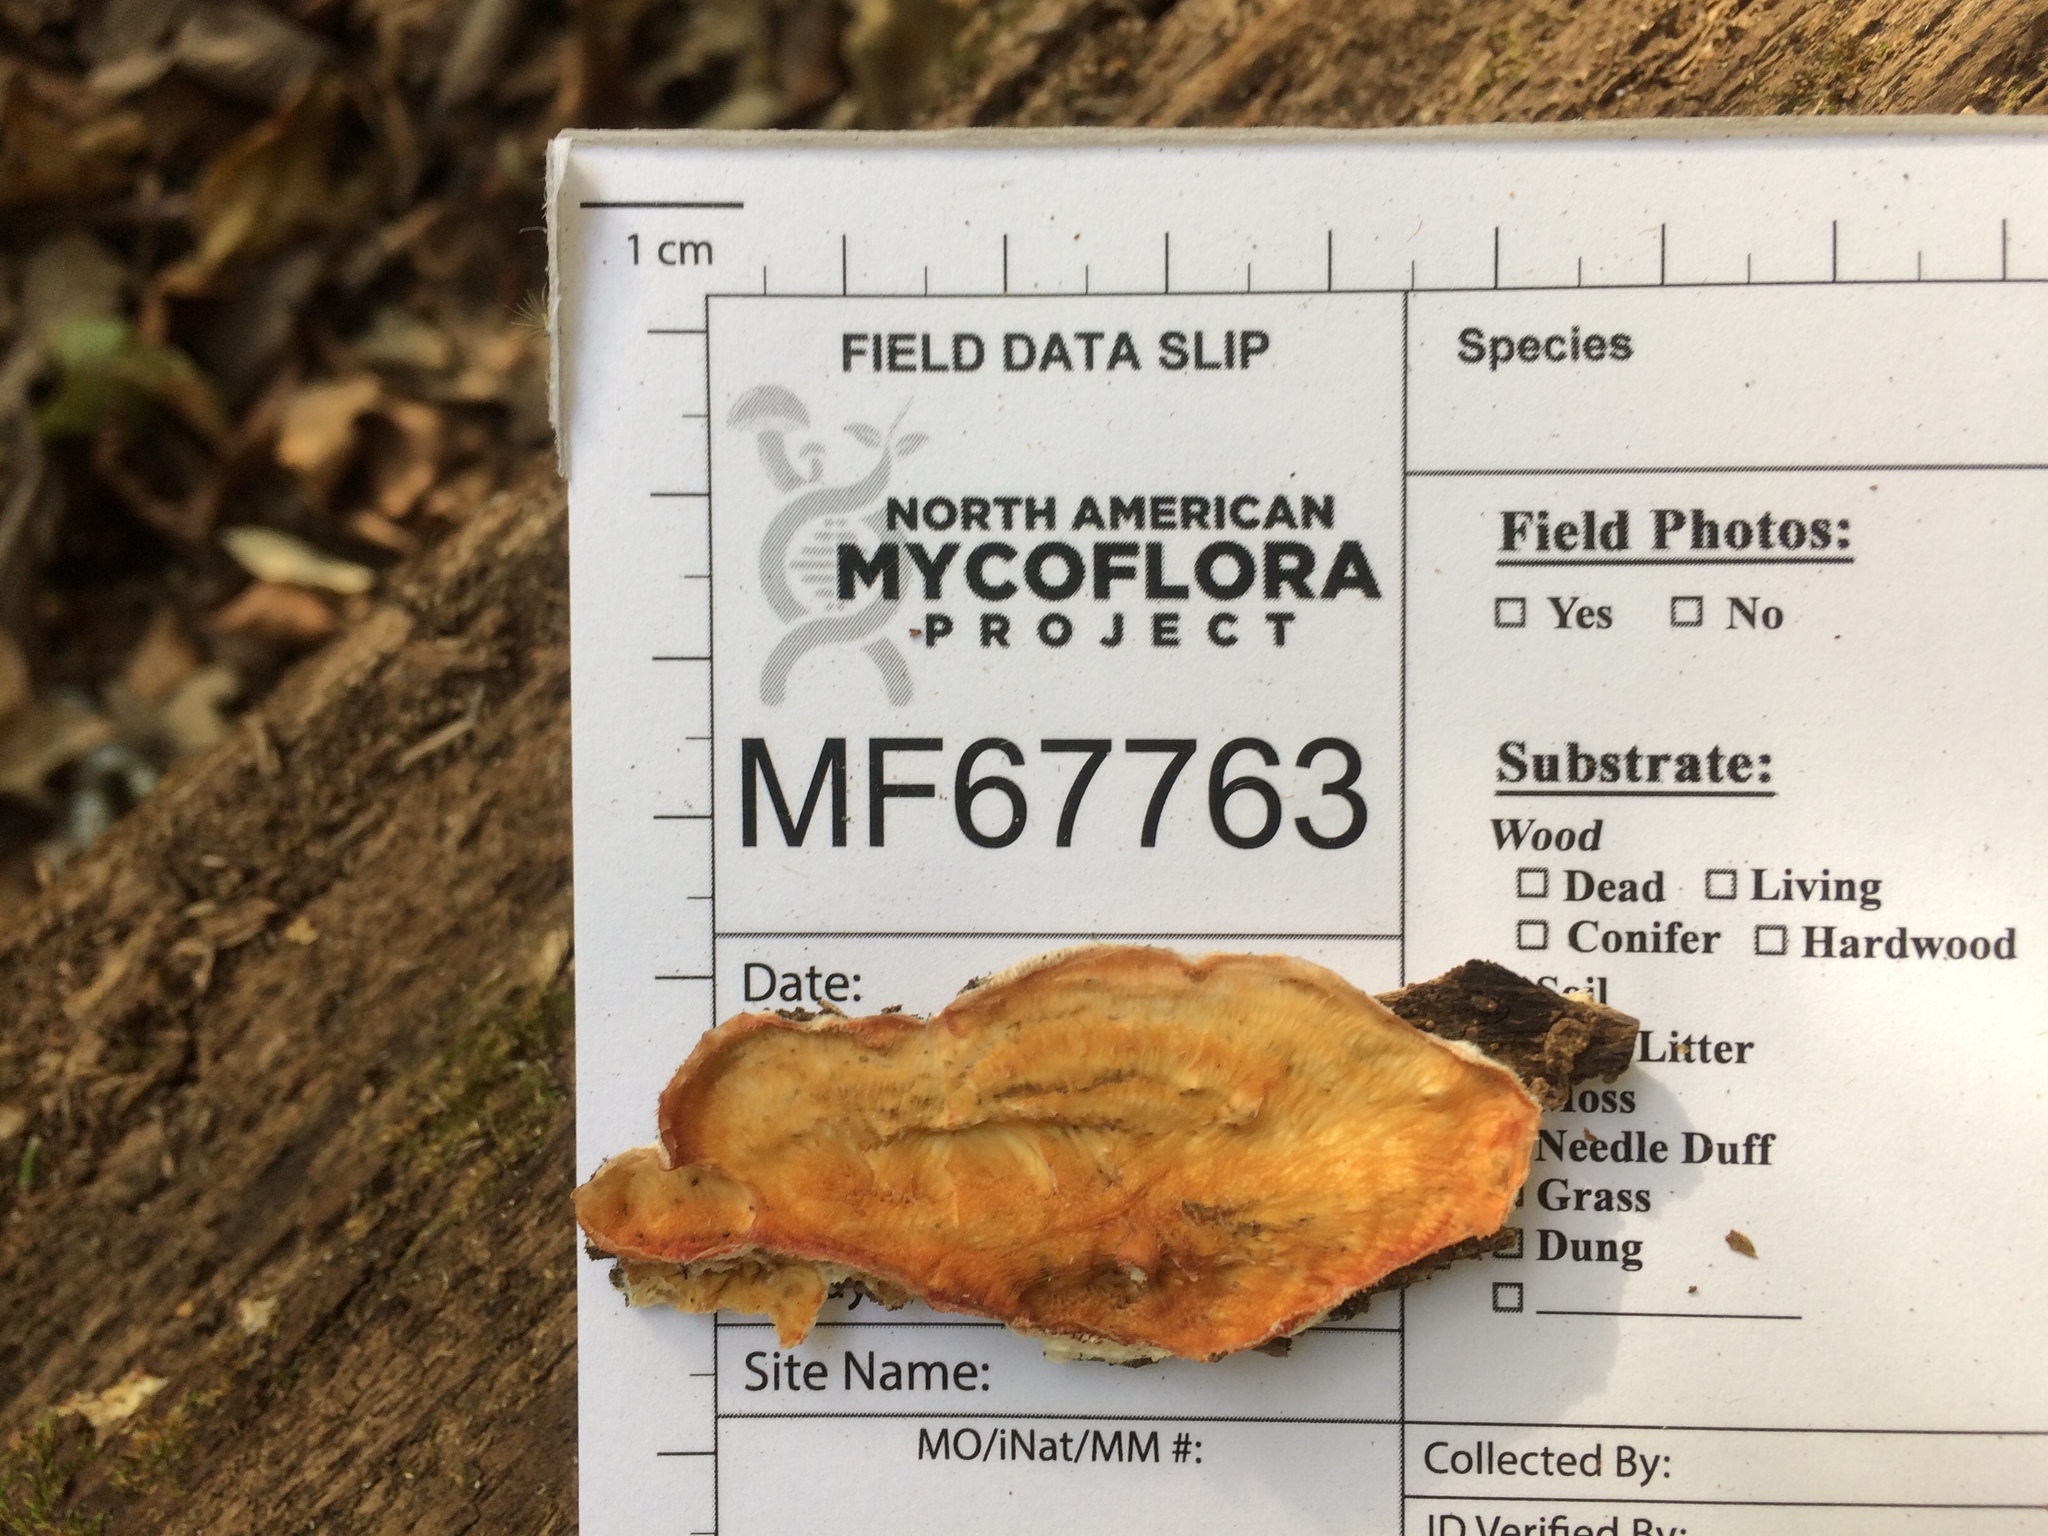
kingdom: Fungi
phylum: Basidiomycota
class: Agaricomycetes
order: Polyporales
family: Meruliaceae
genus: Phlebia
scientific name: Phlebia tremellosa
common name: Jelly rot
